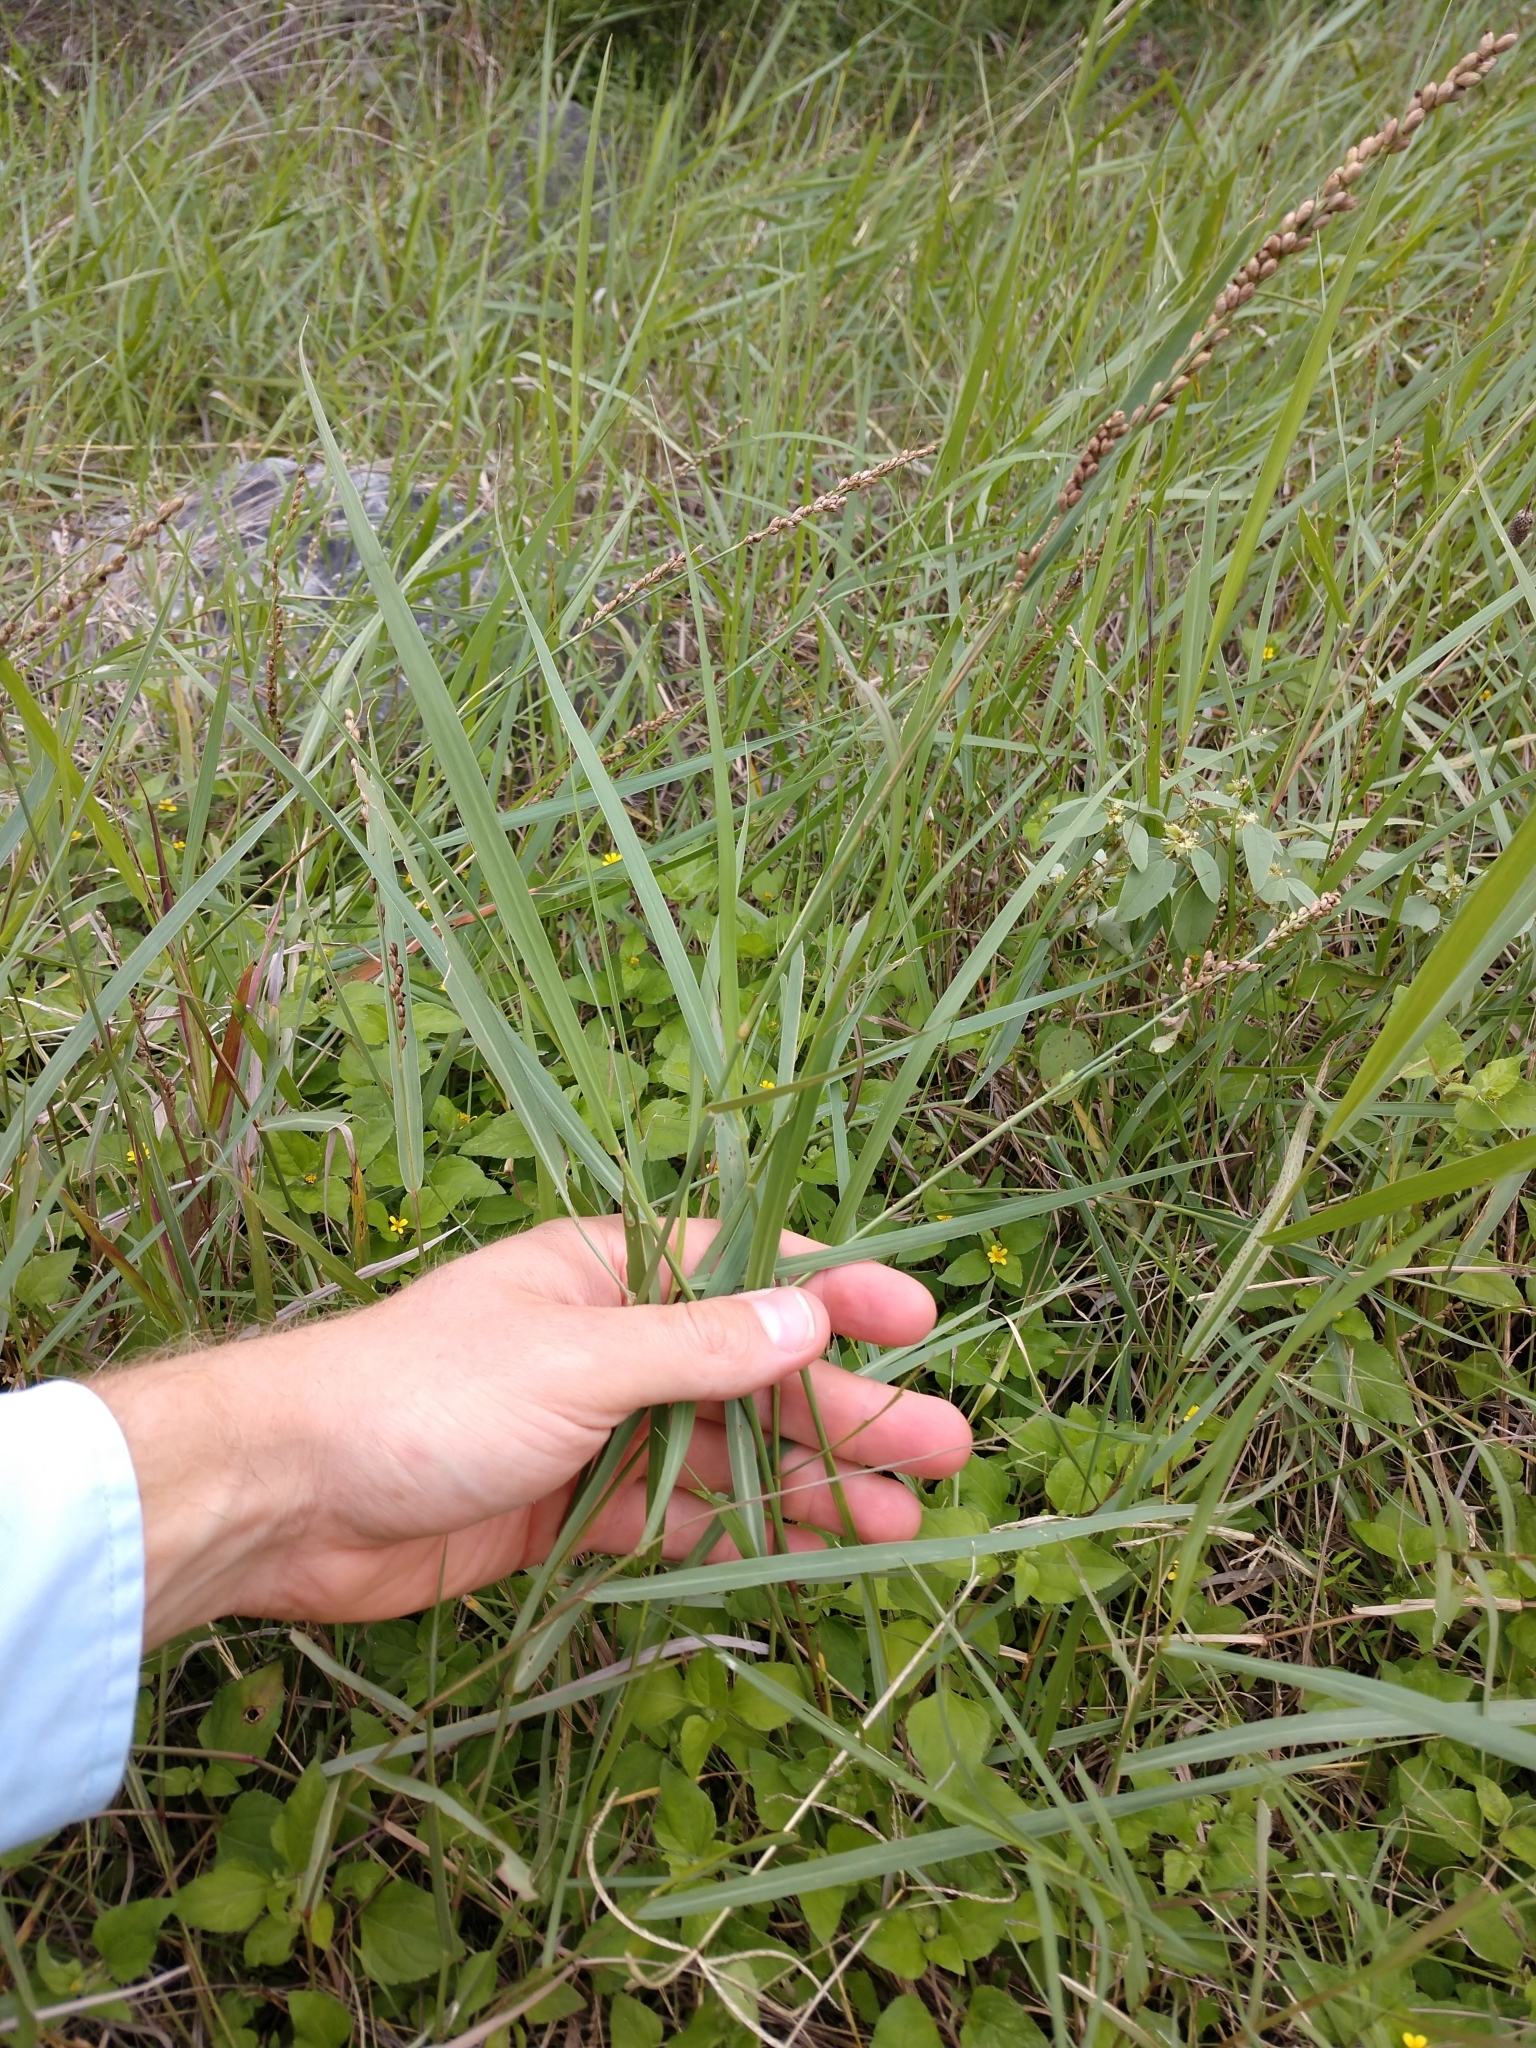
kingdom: Plantae
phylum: Tracheophyta
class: Liliopsida
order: Poales
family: Poaceae
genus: Hopia
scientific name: Hopia obtusa
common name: Vine-mesquite
